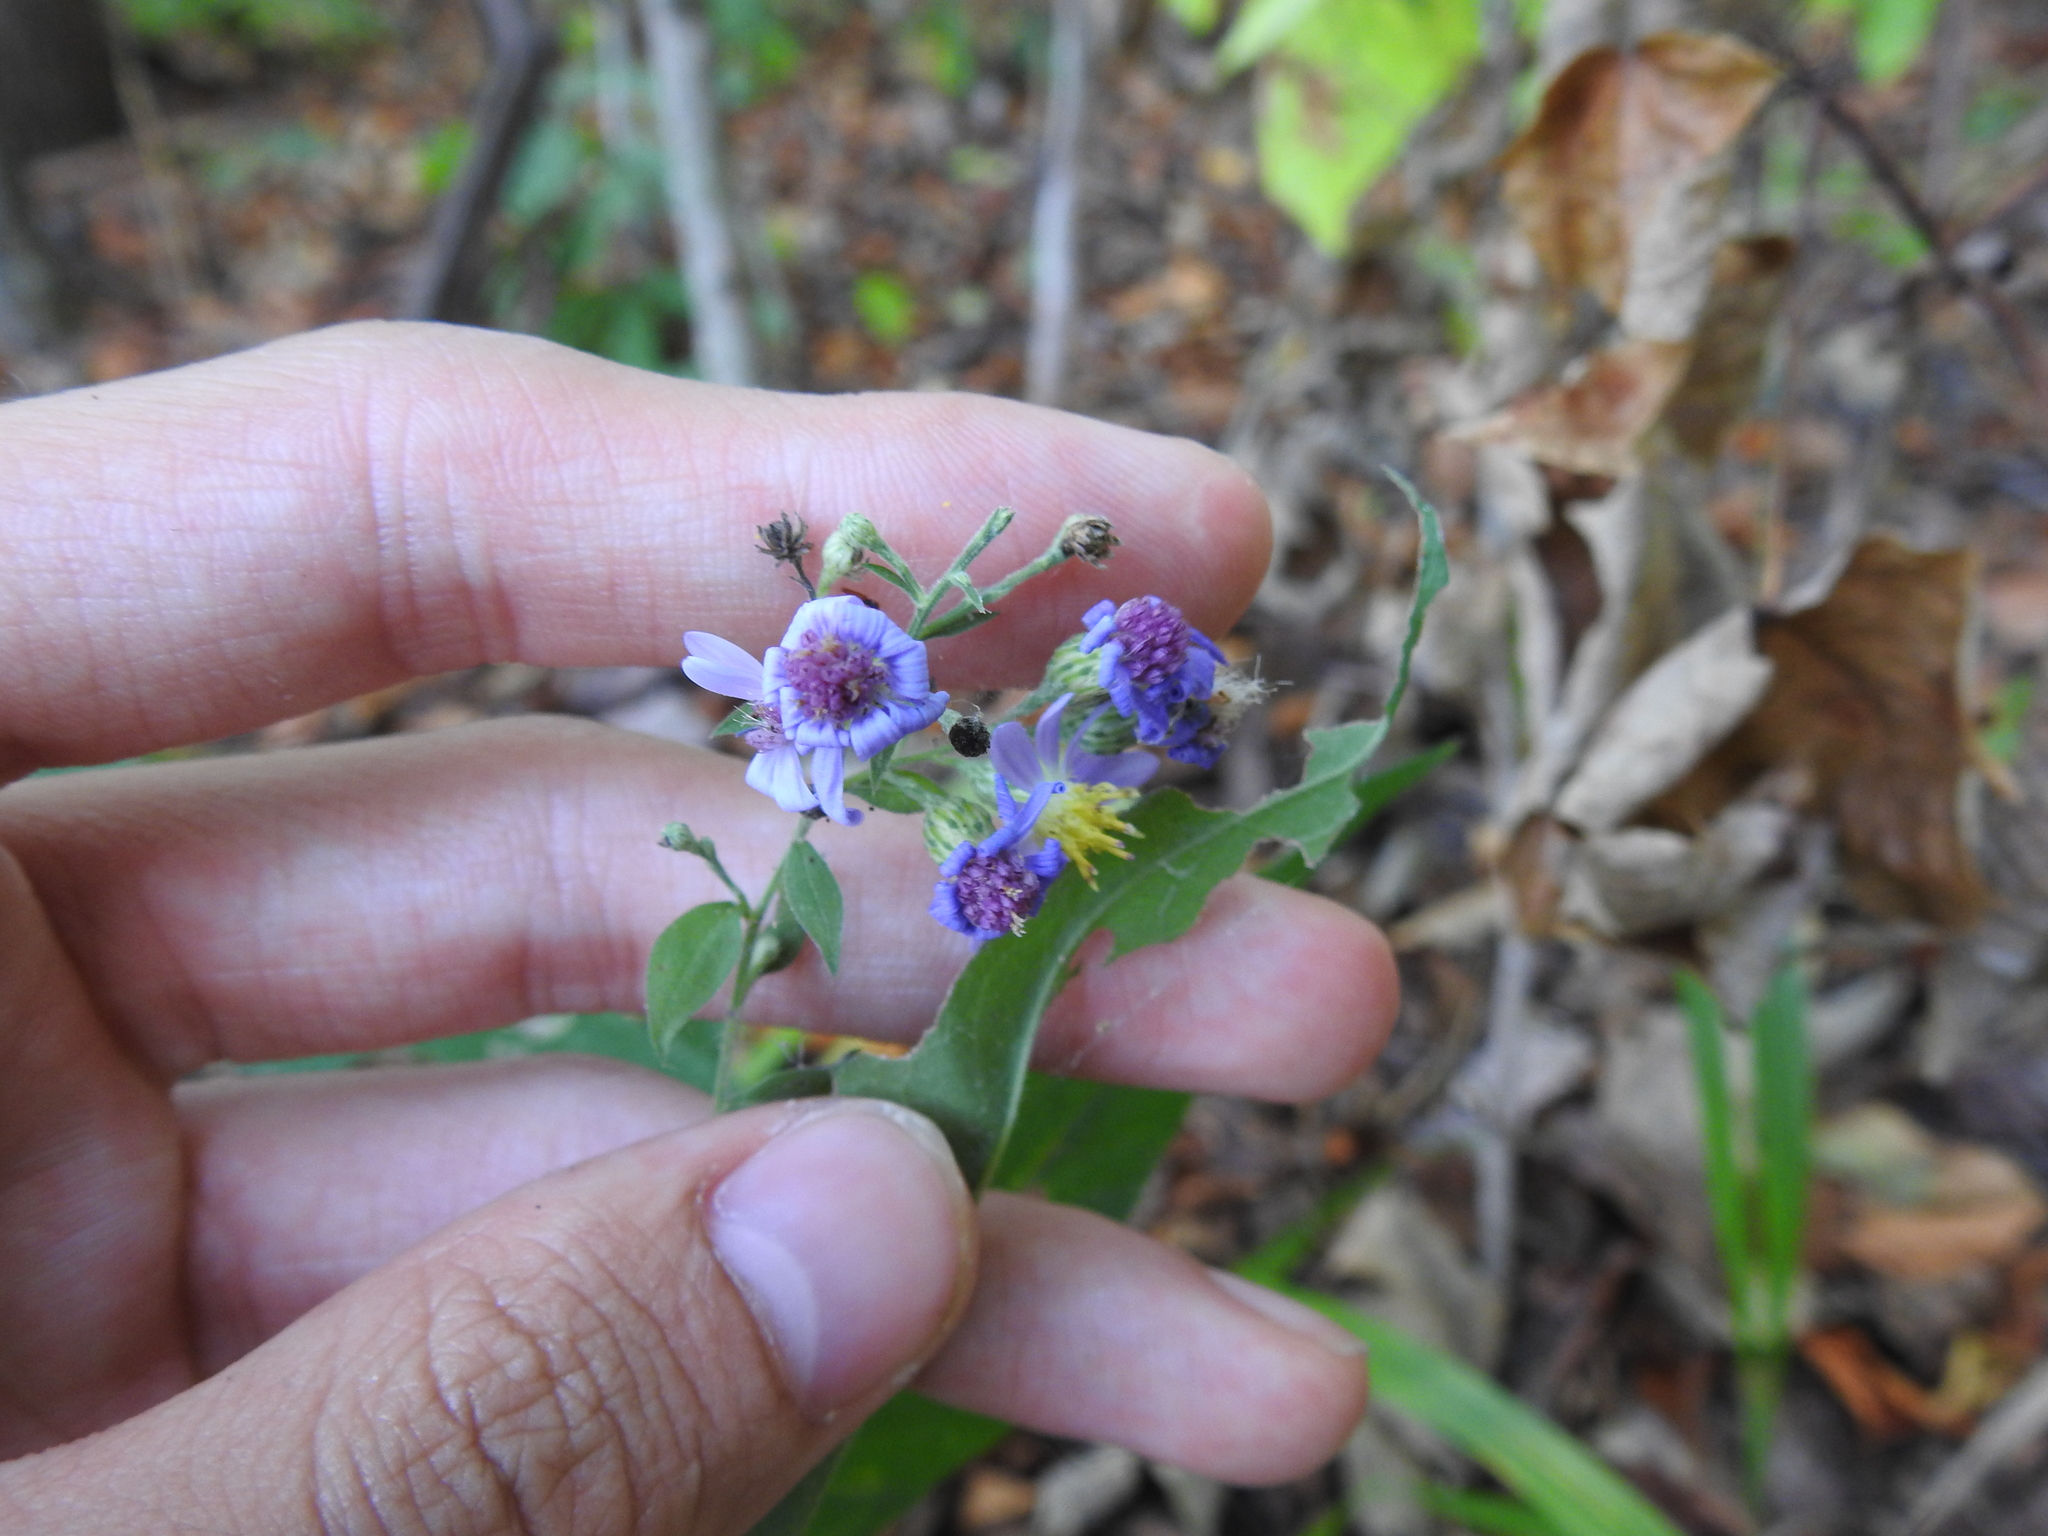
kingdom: Plantae
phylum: Tracheophyta
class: Magnoliopsida
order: Asterales
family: Asteraceae
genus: Symphyotrichum
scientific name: Symphyotrichum shortii
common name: Short's aster
